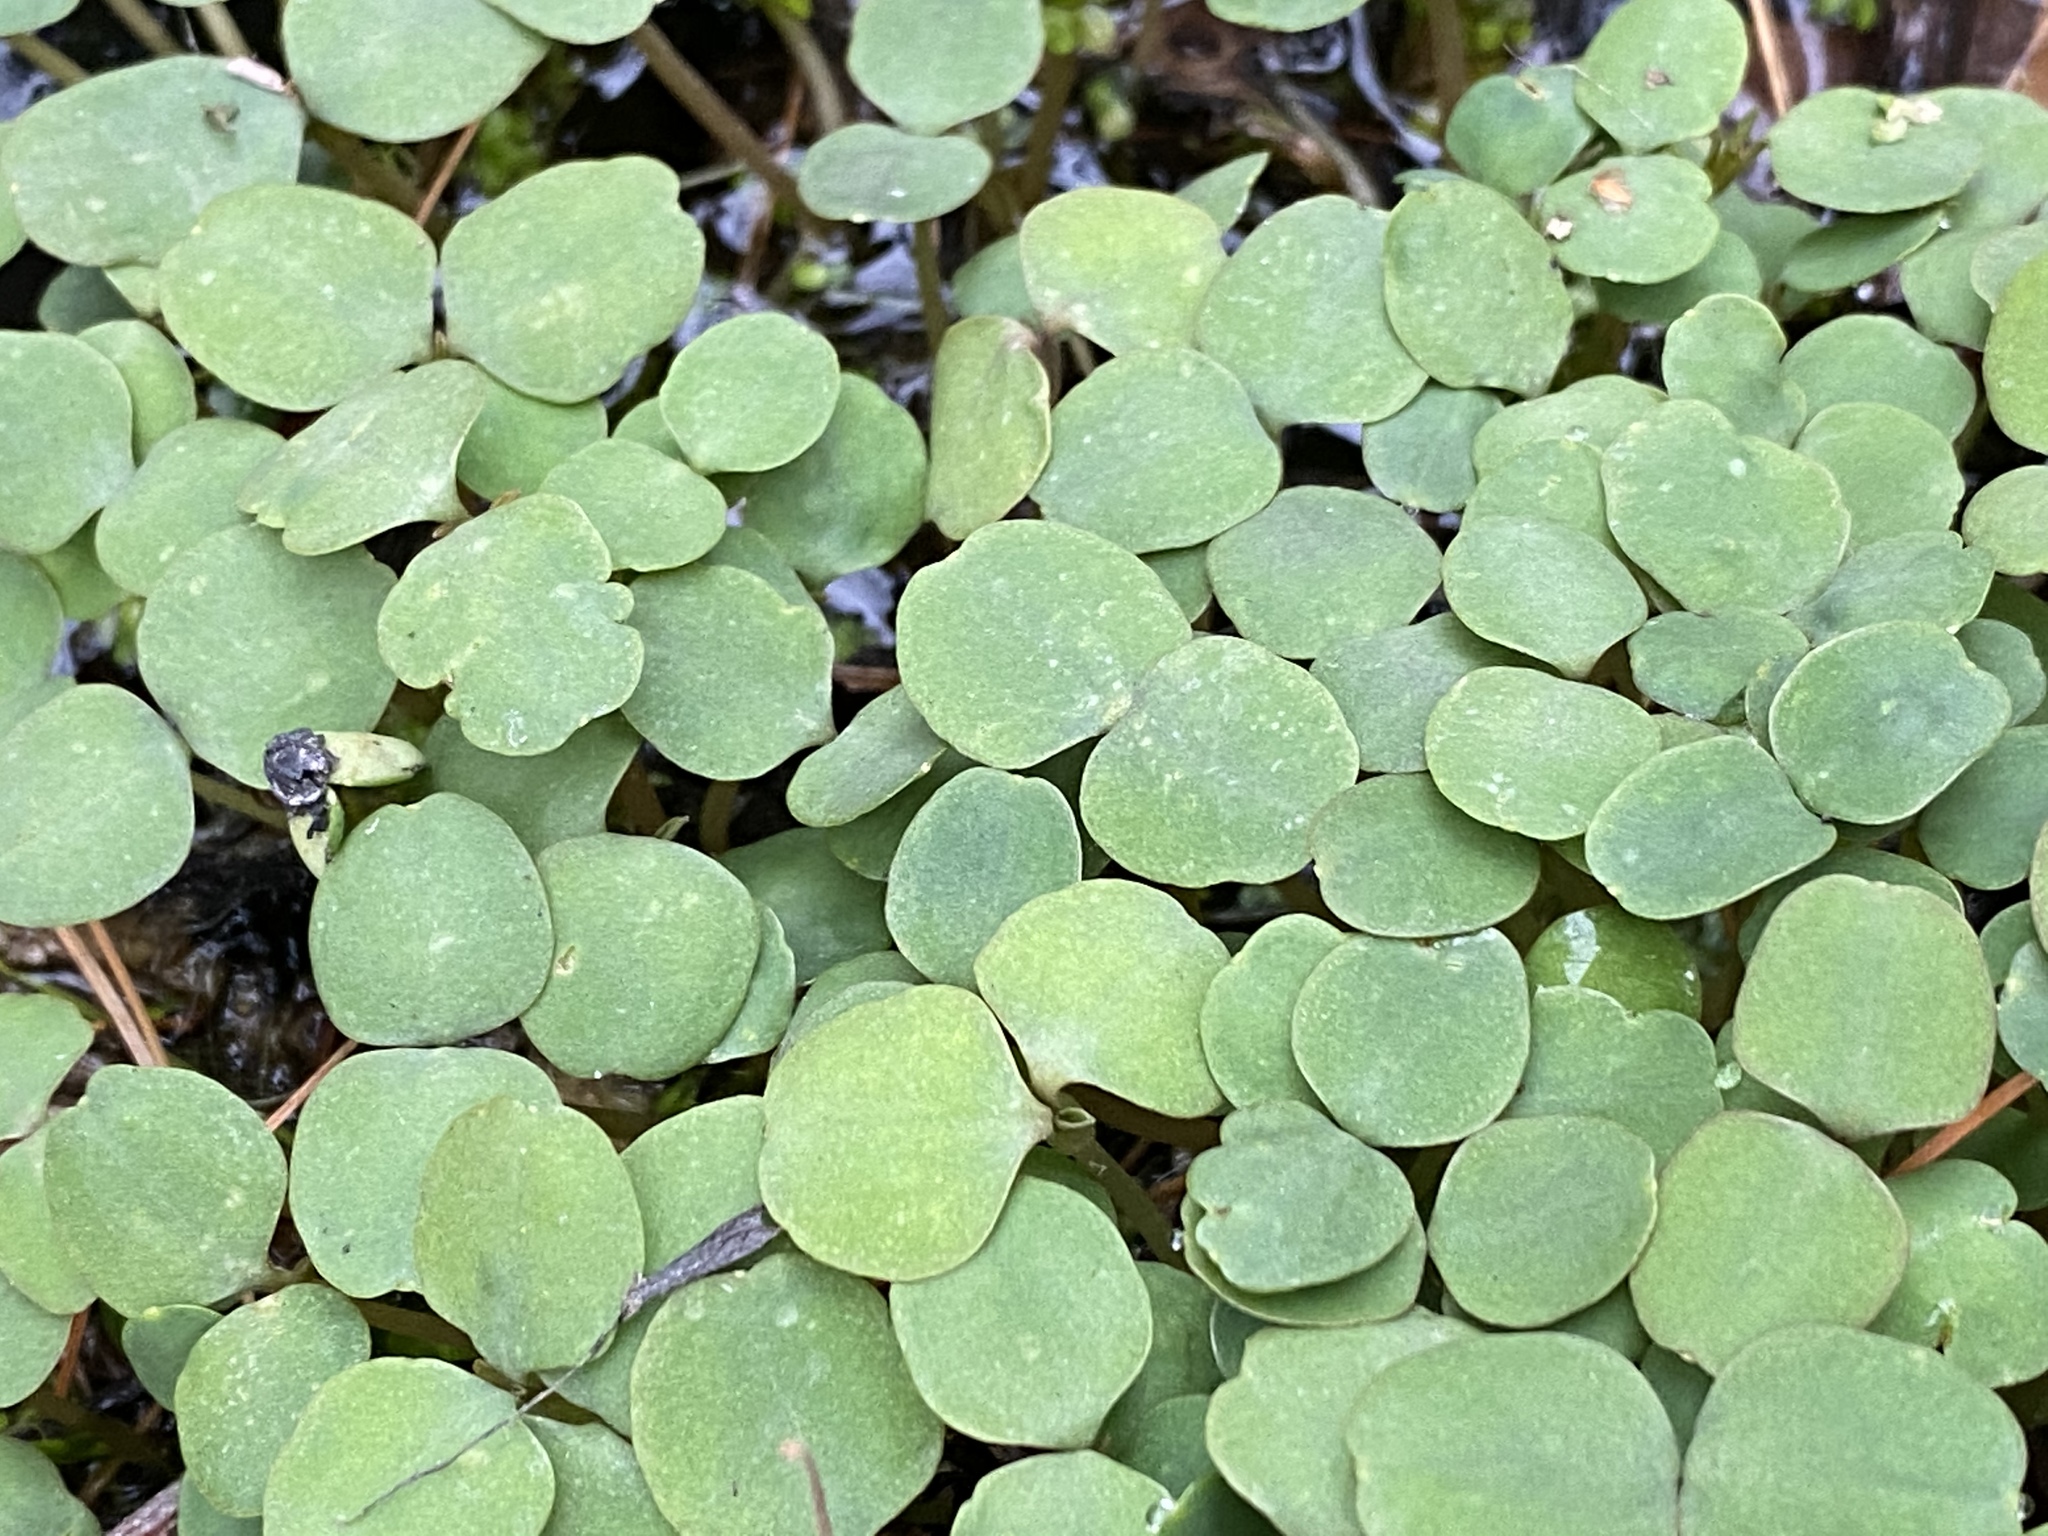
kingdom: Plantae
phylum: Tracheophyta
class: Magnoliopsida
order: Ericales
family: Balsaminaceae
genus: Impatiens
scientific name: Impatiens capensis
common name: Orange balsam
